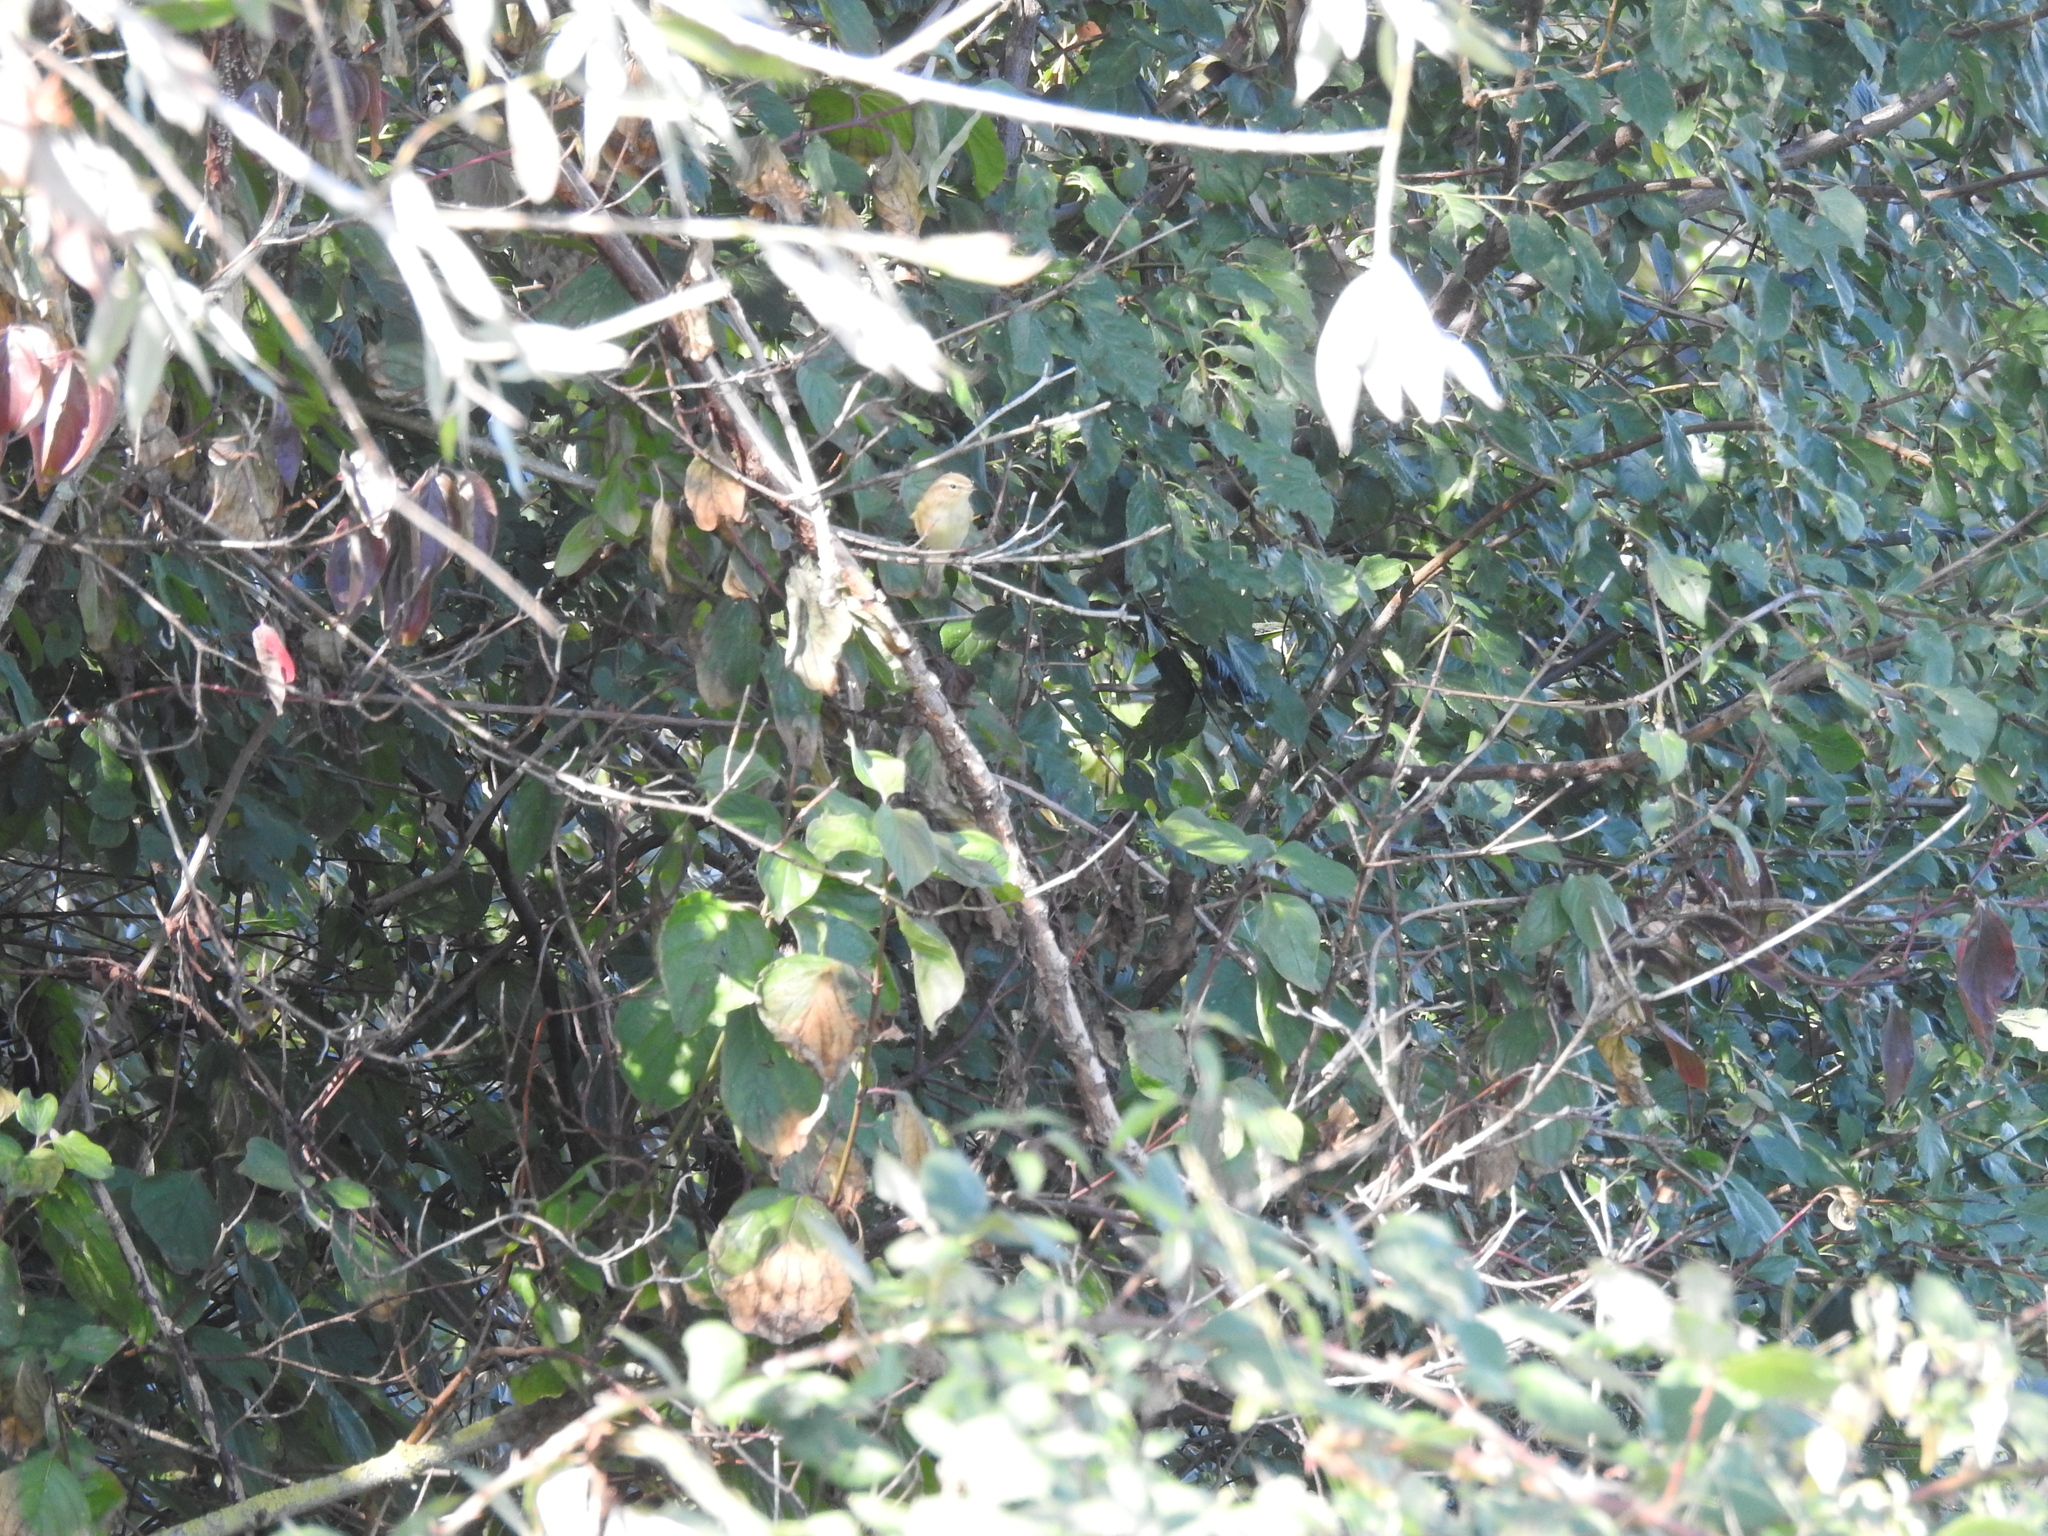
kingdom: Animalia
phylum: Chordata
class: Aves
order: Passeriformes
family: Phylloscopidae
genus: Phylloscopus
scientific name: Phylloscopus collybita
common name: Common chiffchaff
